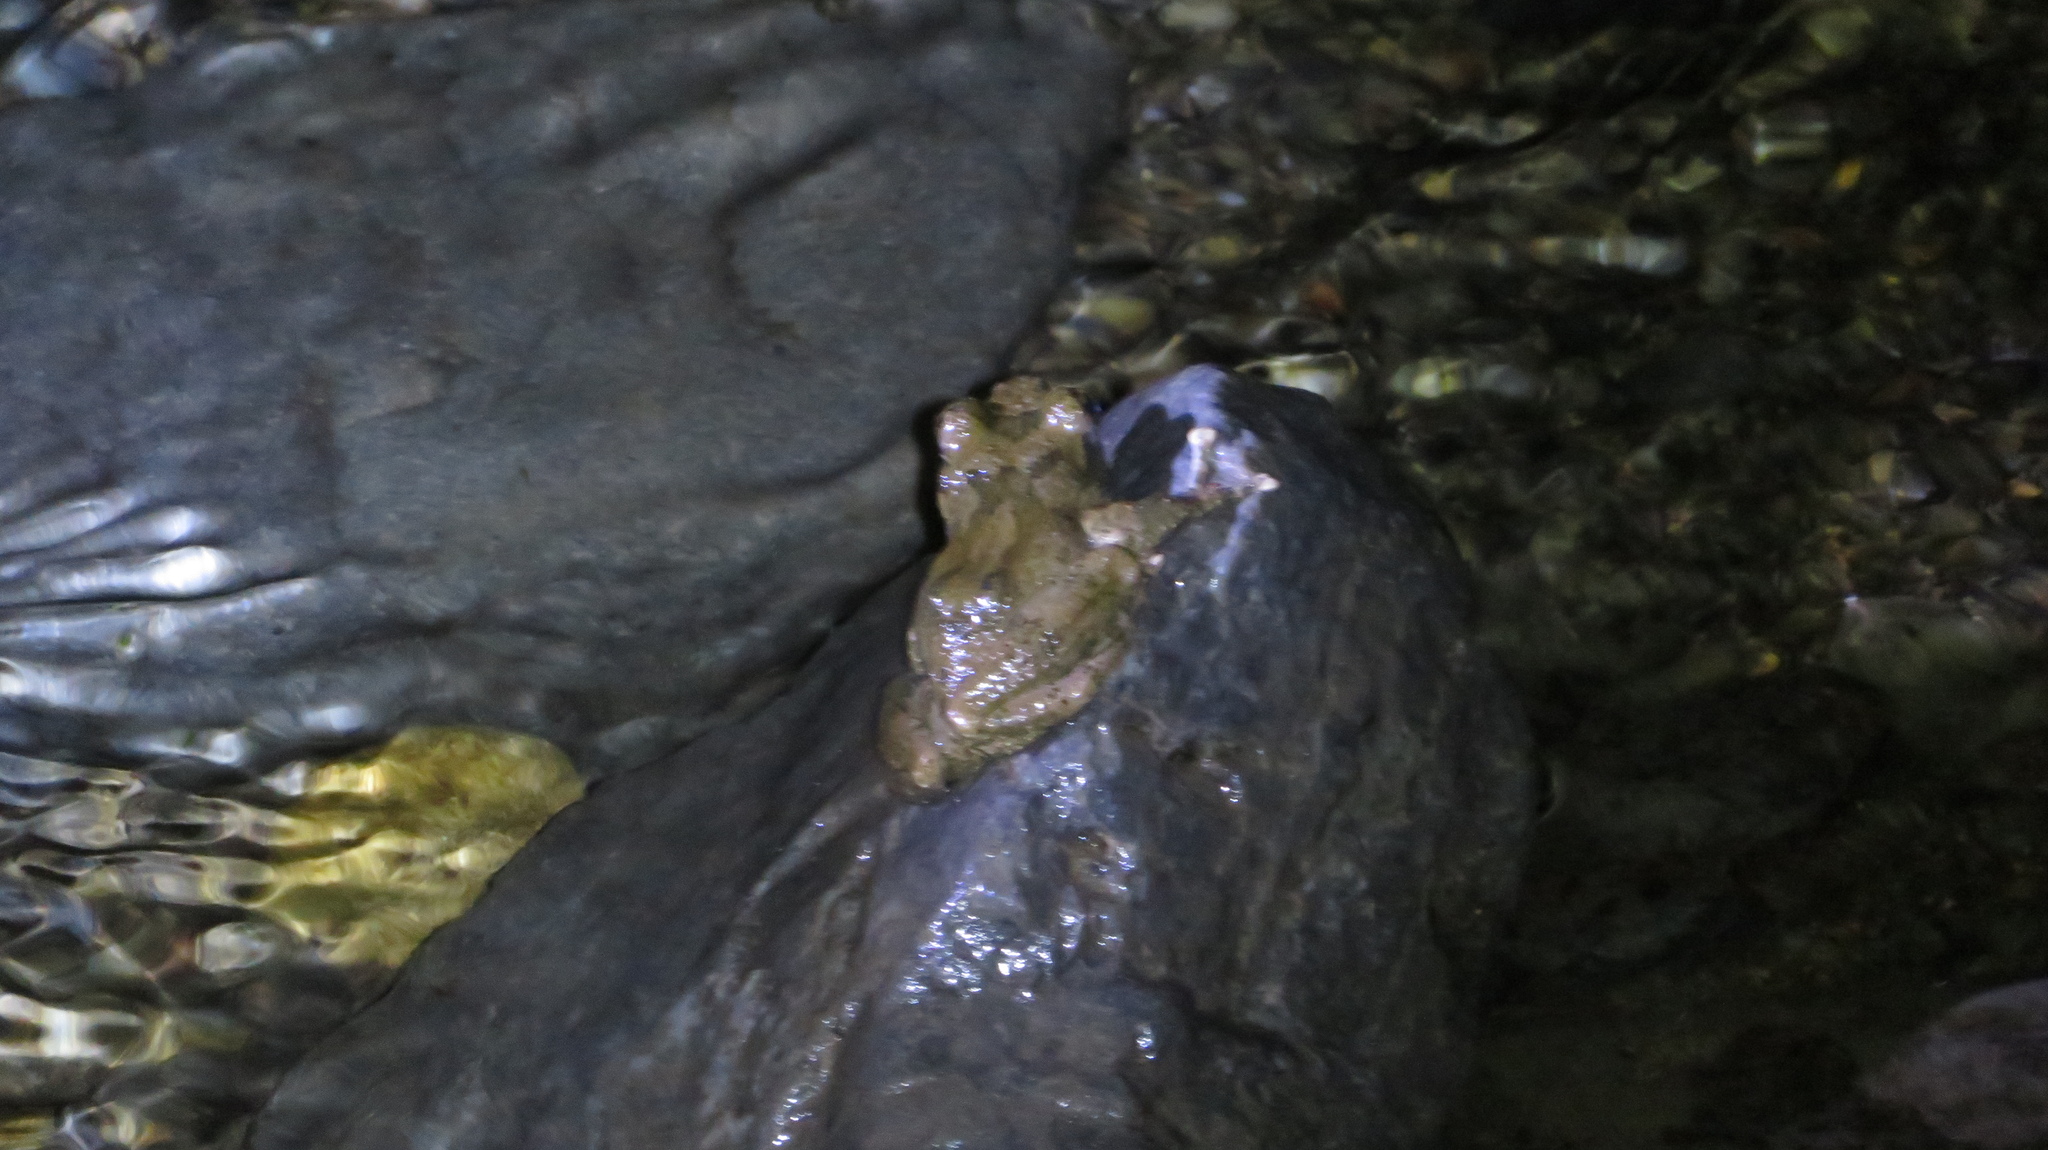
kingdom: Animalia
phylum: Chordata
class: Amphibia
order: Anura
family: Rhacophoridae
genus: Buergeria
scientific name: Buergeria buergeri
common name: Buerger's frog
